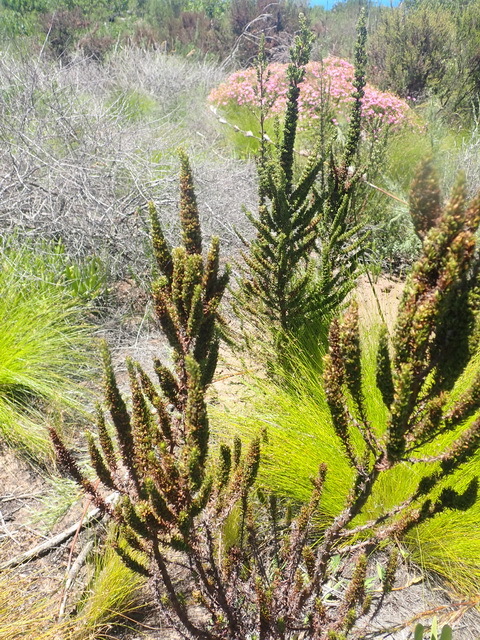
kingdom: Plantae
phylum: Tracheophyta
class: Magnoliopsida
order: Gentianales
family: Rubiaceae
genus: Anthospermum
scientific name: Anthospermum aethiopicum
